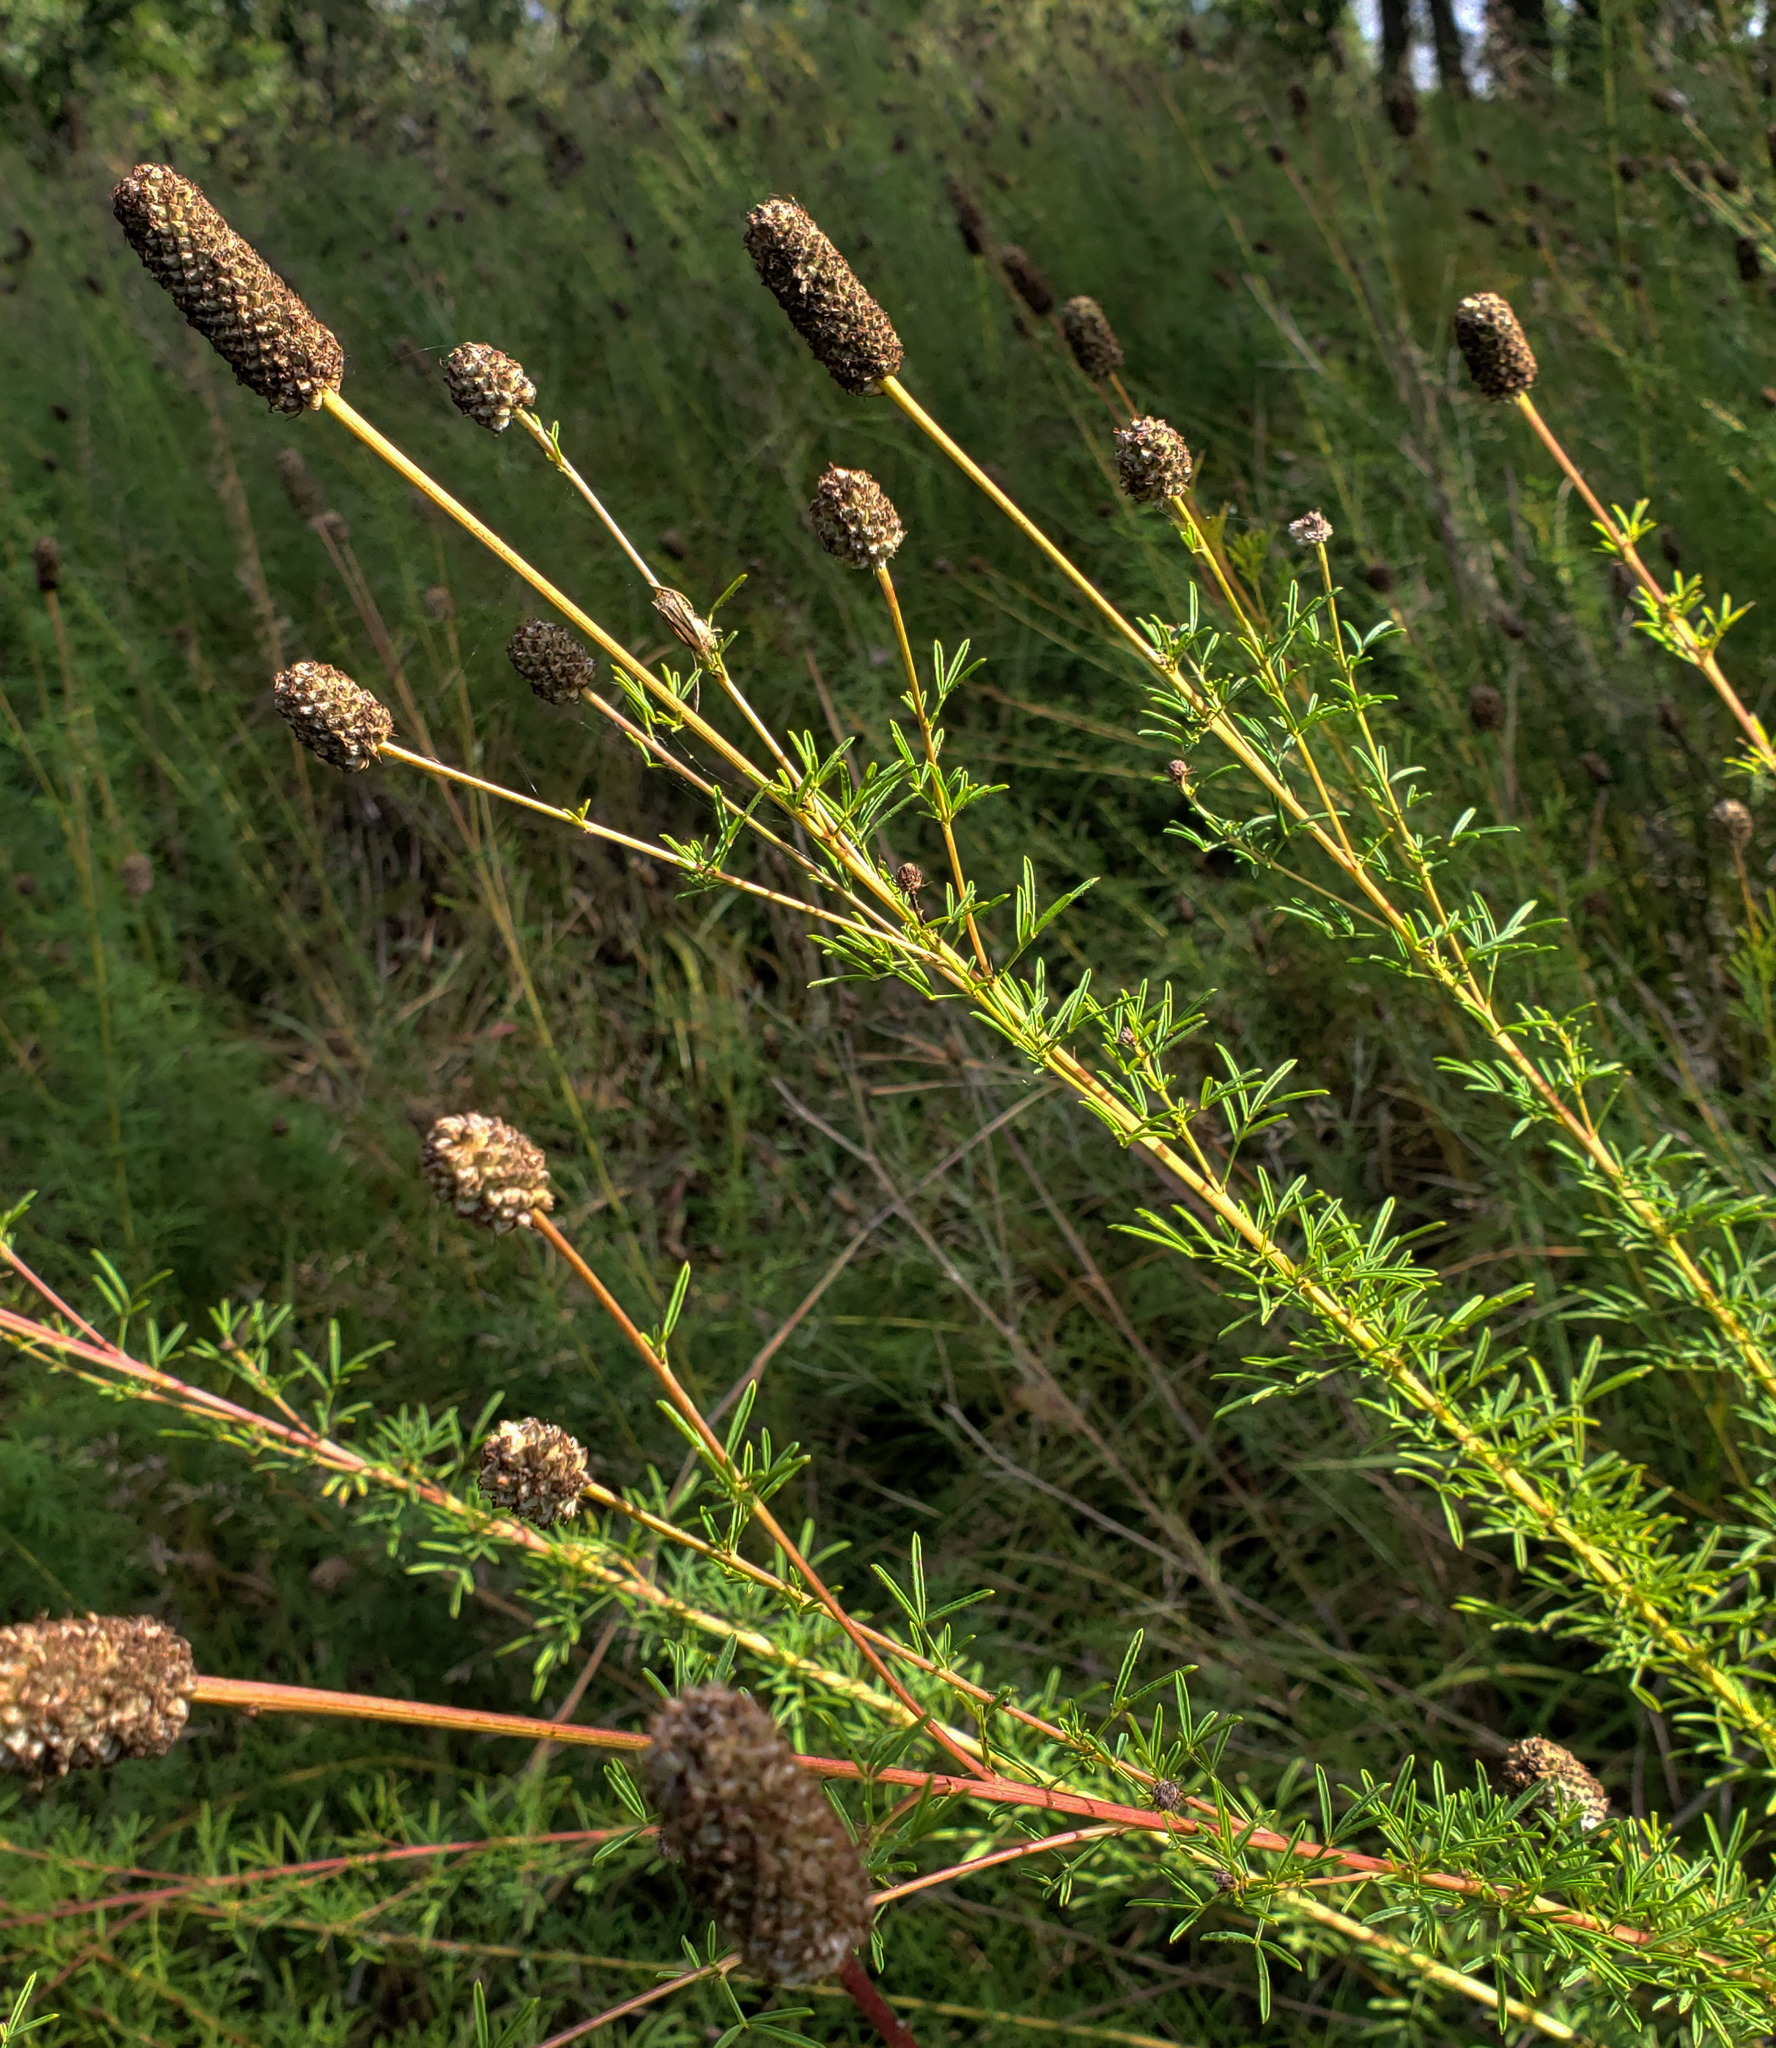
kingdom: Plantae
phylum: Tracheophyta
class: Magnoliopsida
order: Fabales
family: Fabaceae
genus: Dalea
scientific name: Dalea purpurea
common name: Purple prairie-clover
